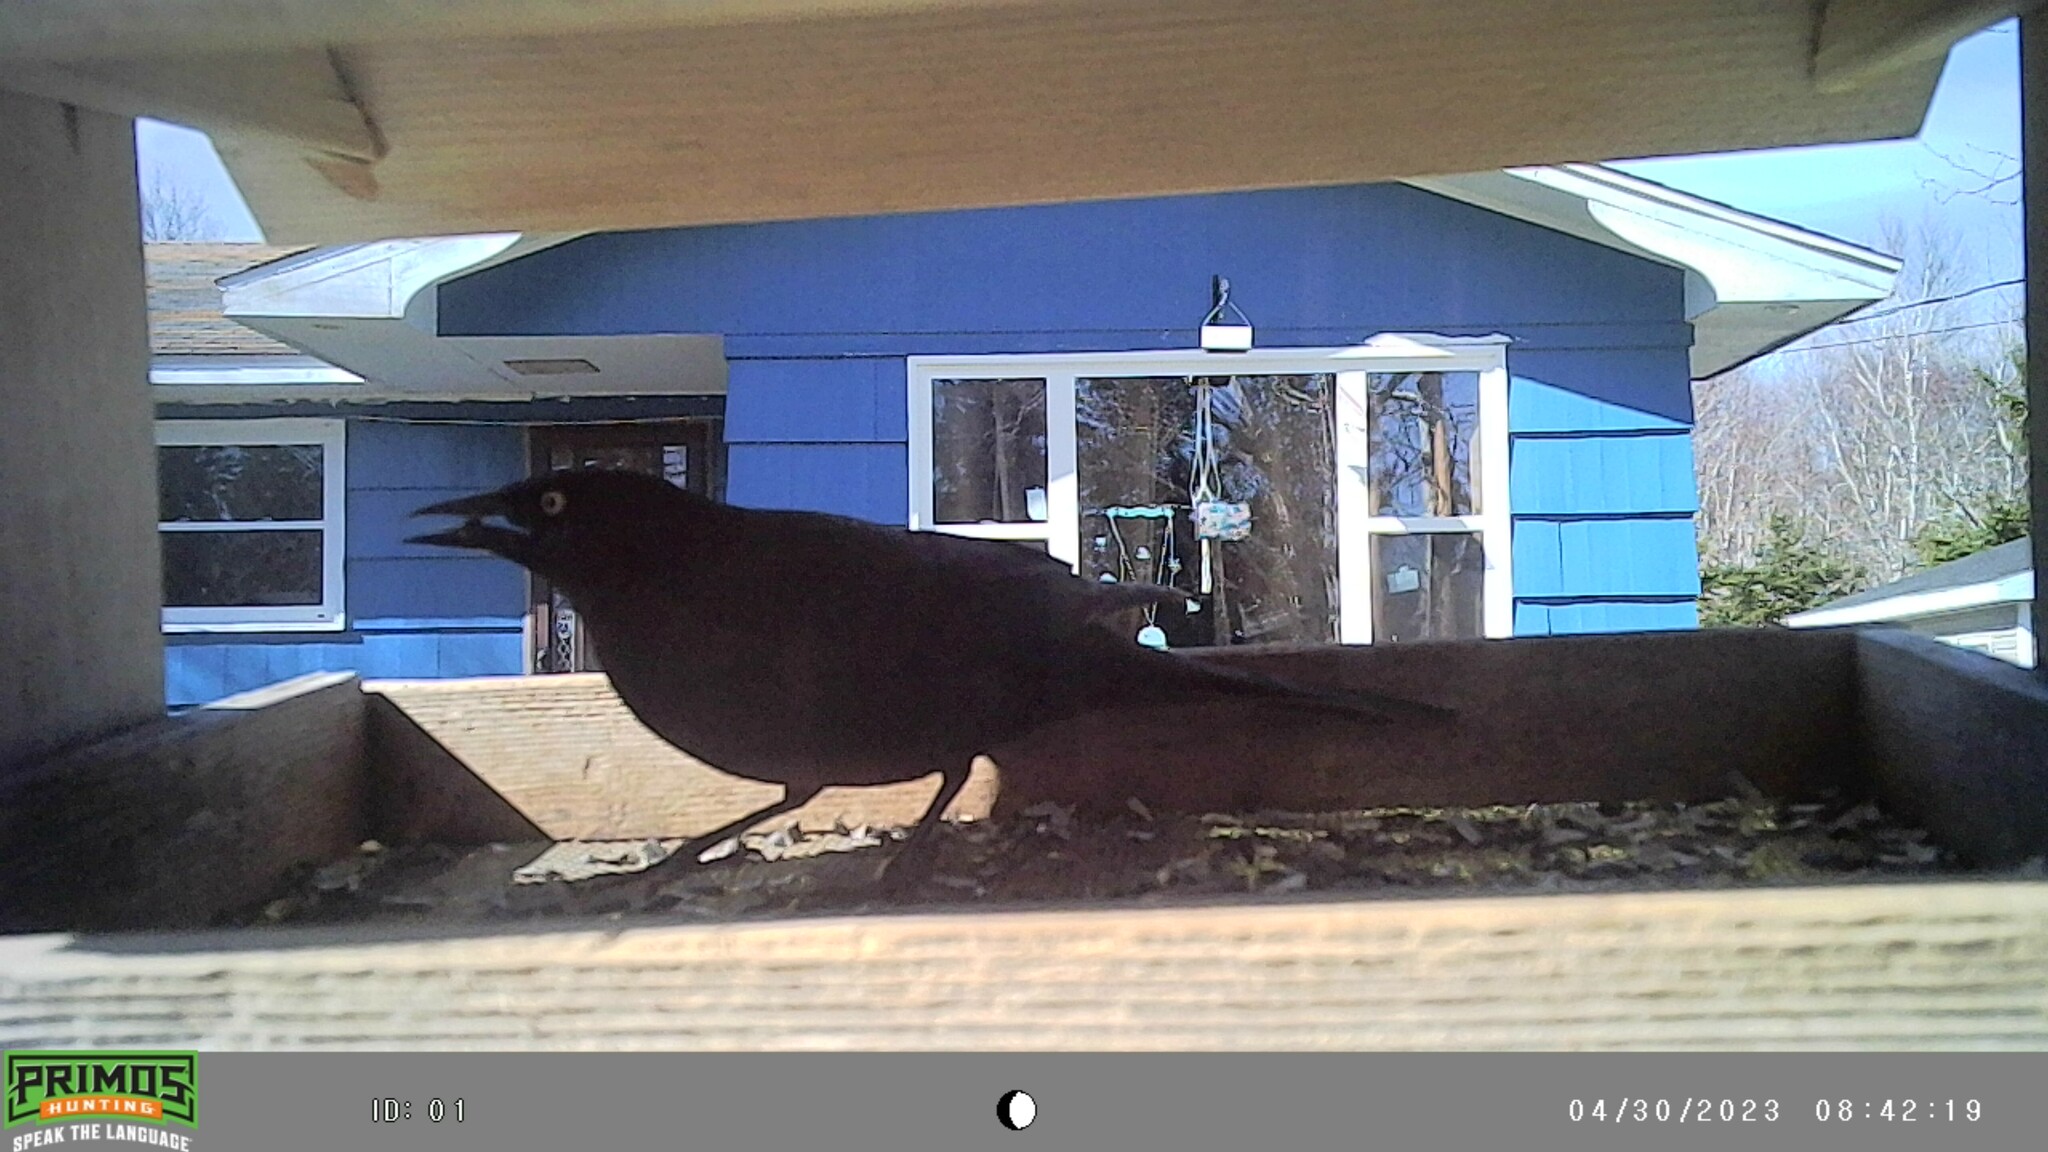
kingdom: Animalia
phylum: Chordata
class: Aves
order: Passeriformes
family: Icteridae
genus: Quiscalus
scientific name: Quiscalus quiscula
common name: Common grackle
